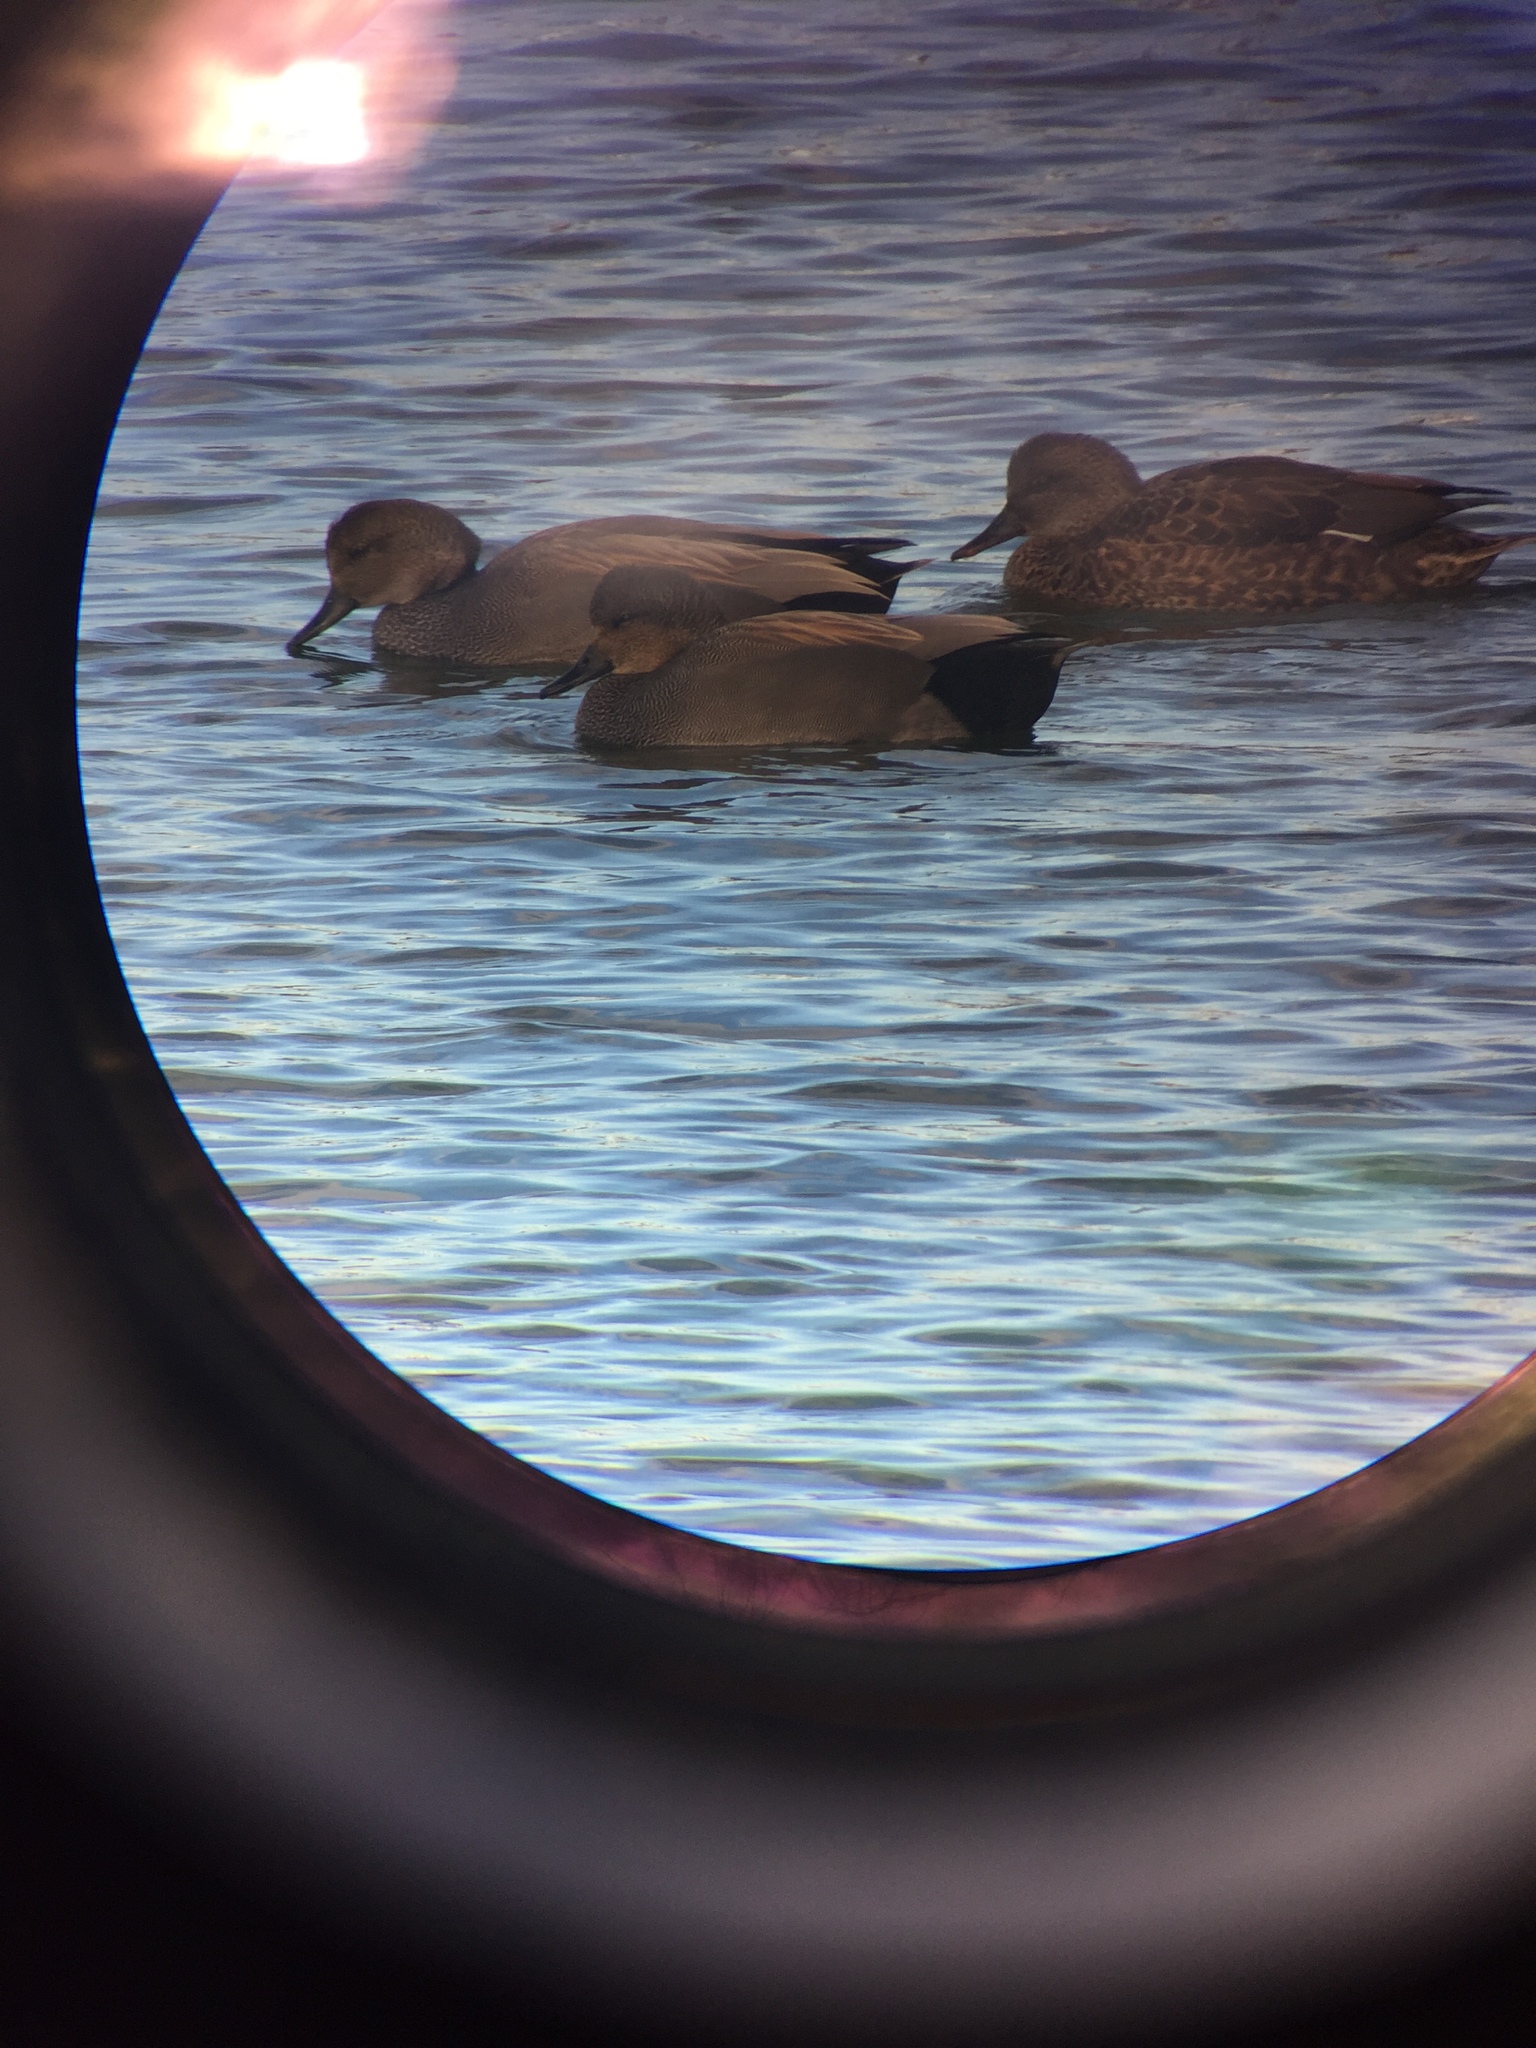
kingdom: Animalia
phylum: Chordata
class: Aves
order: Anseriformes
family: Anatidae
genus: Mareca
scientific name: Mareca strepera
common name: Gadwall
